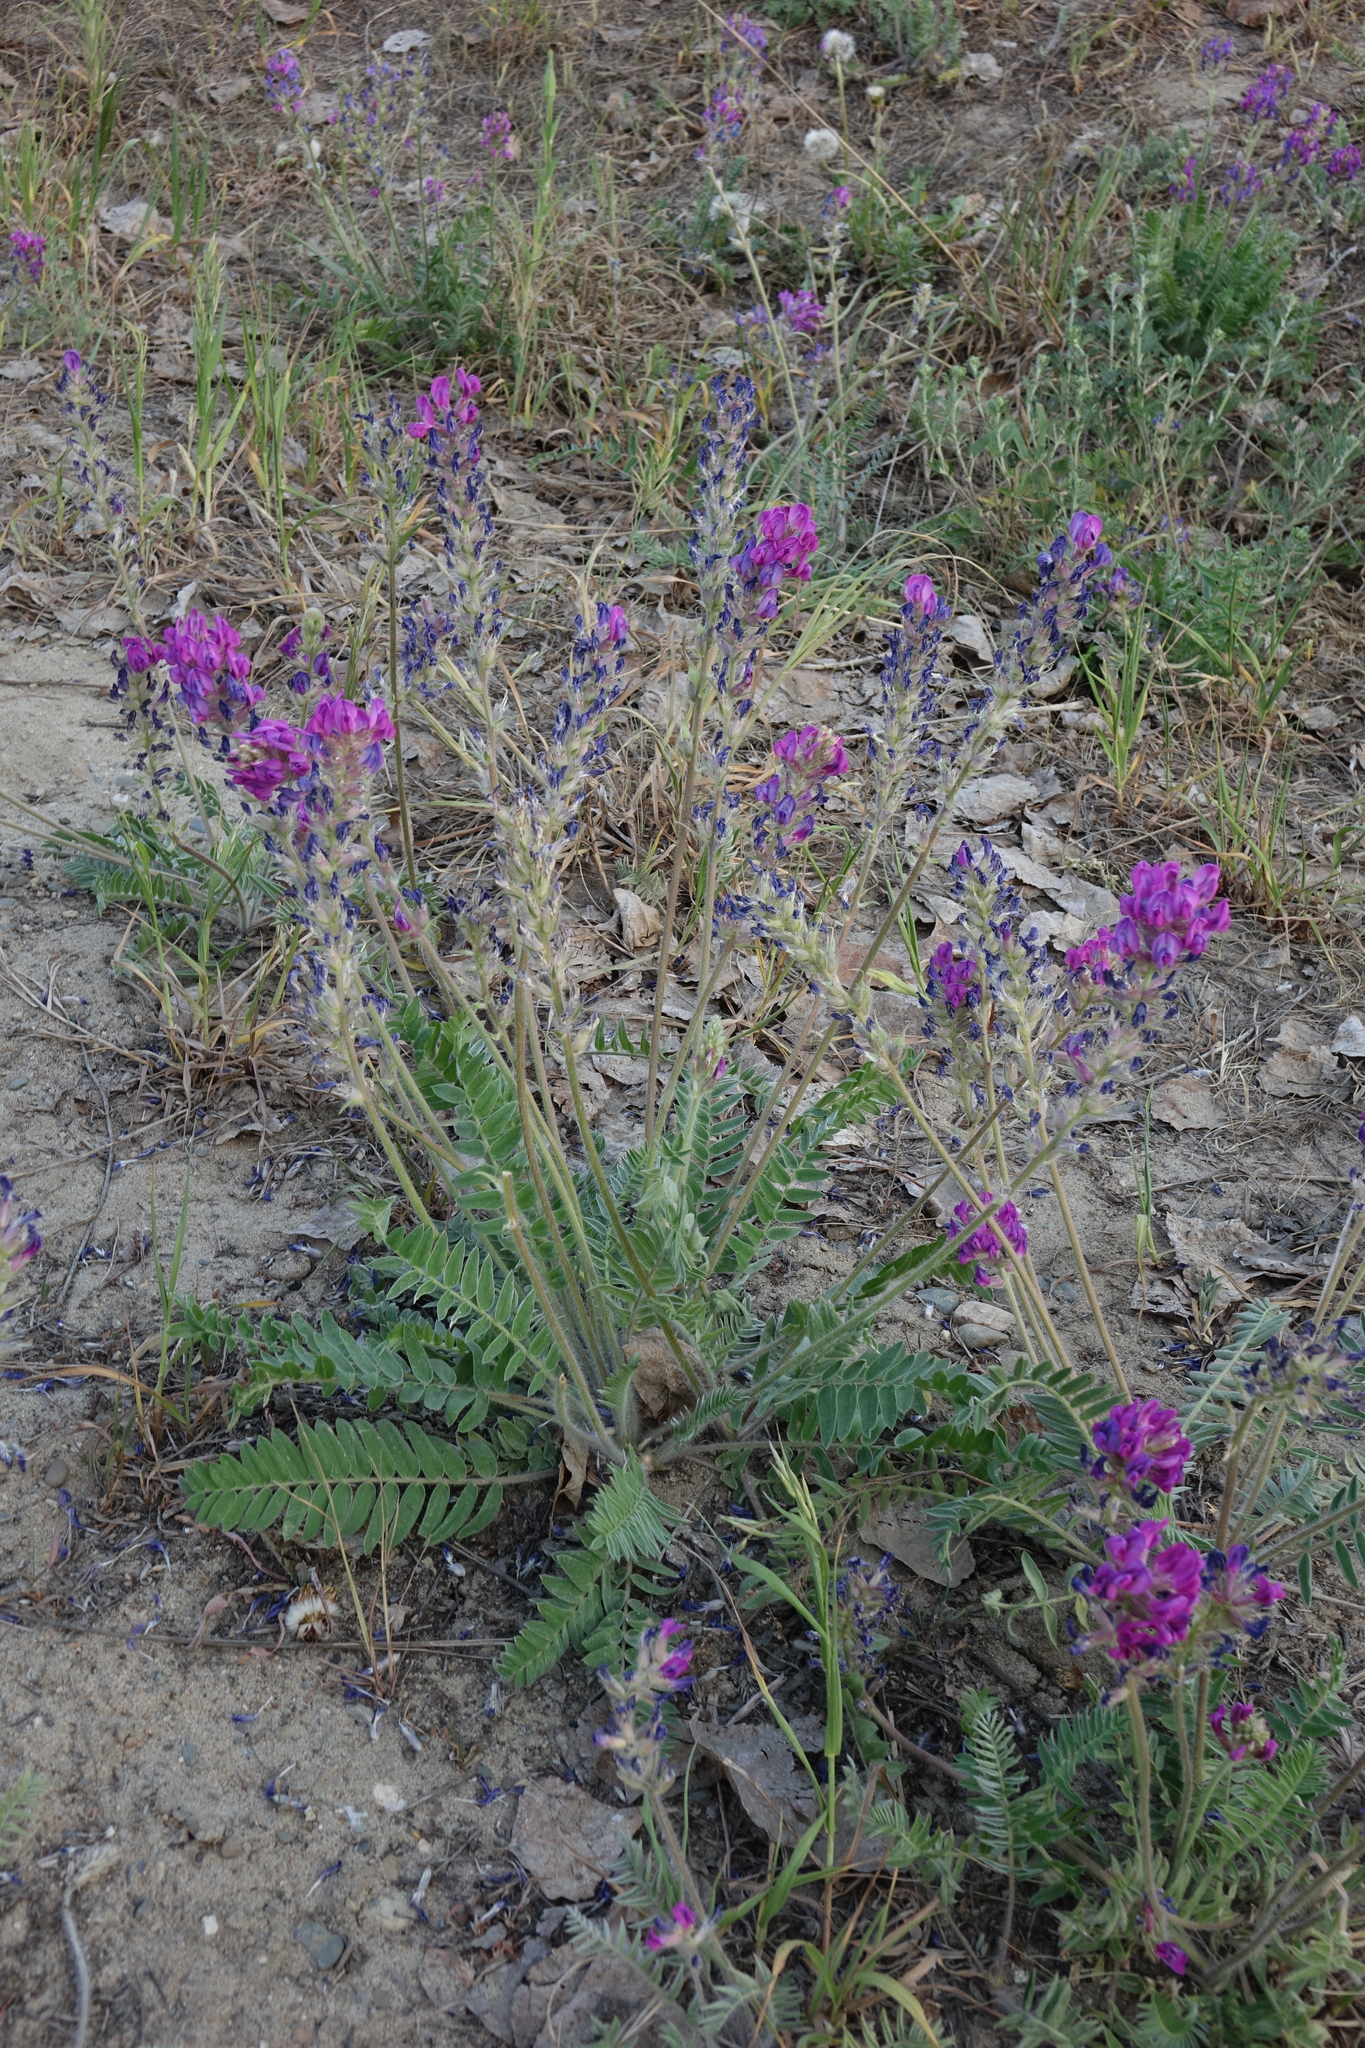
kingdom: Plantae
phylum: Tracheophyta
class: Magnoliopsida
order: Fabales
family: Fabaceae
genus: Oxytropis
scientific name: Oxytropis campanulata
